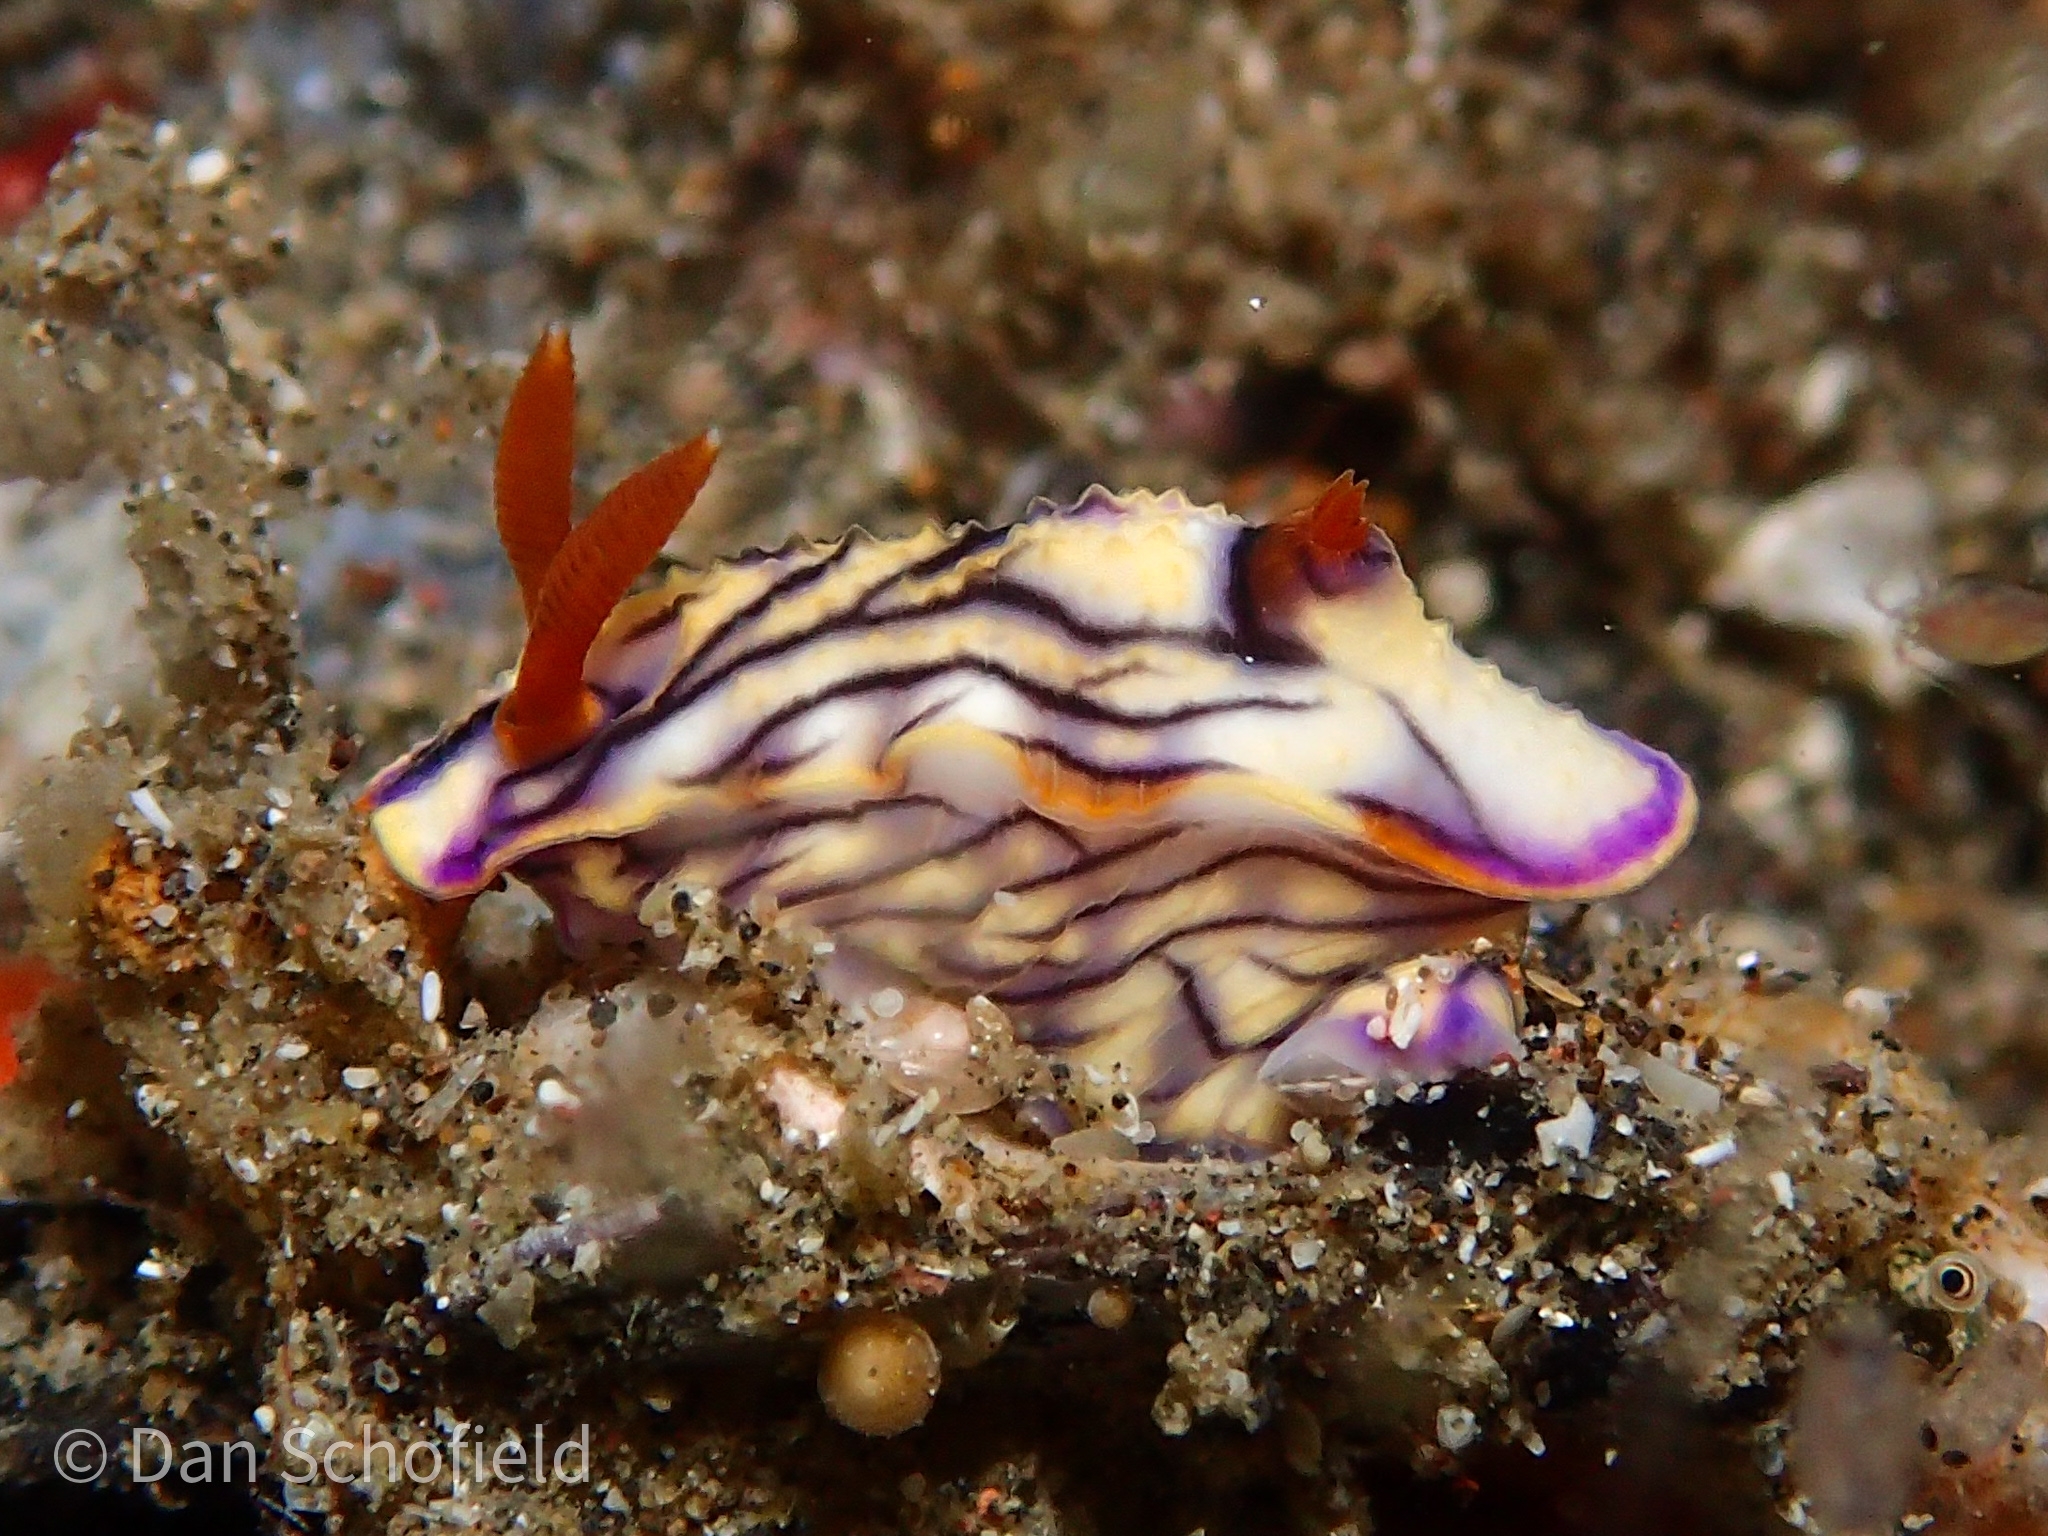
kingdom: Animalia
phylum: Mollusca
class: Gastropoda
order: Nudibranchia
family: Chromodorididae
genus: Hypselodoris
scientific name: Hypselodoris zephyra
